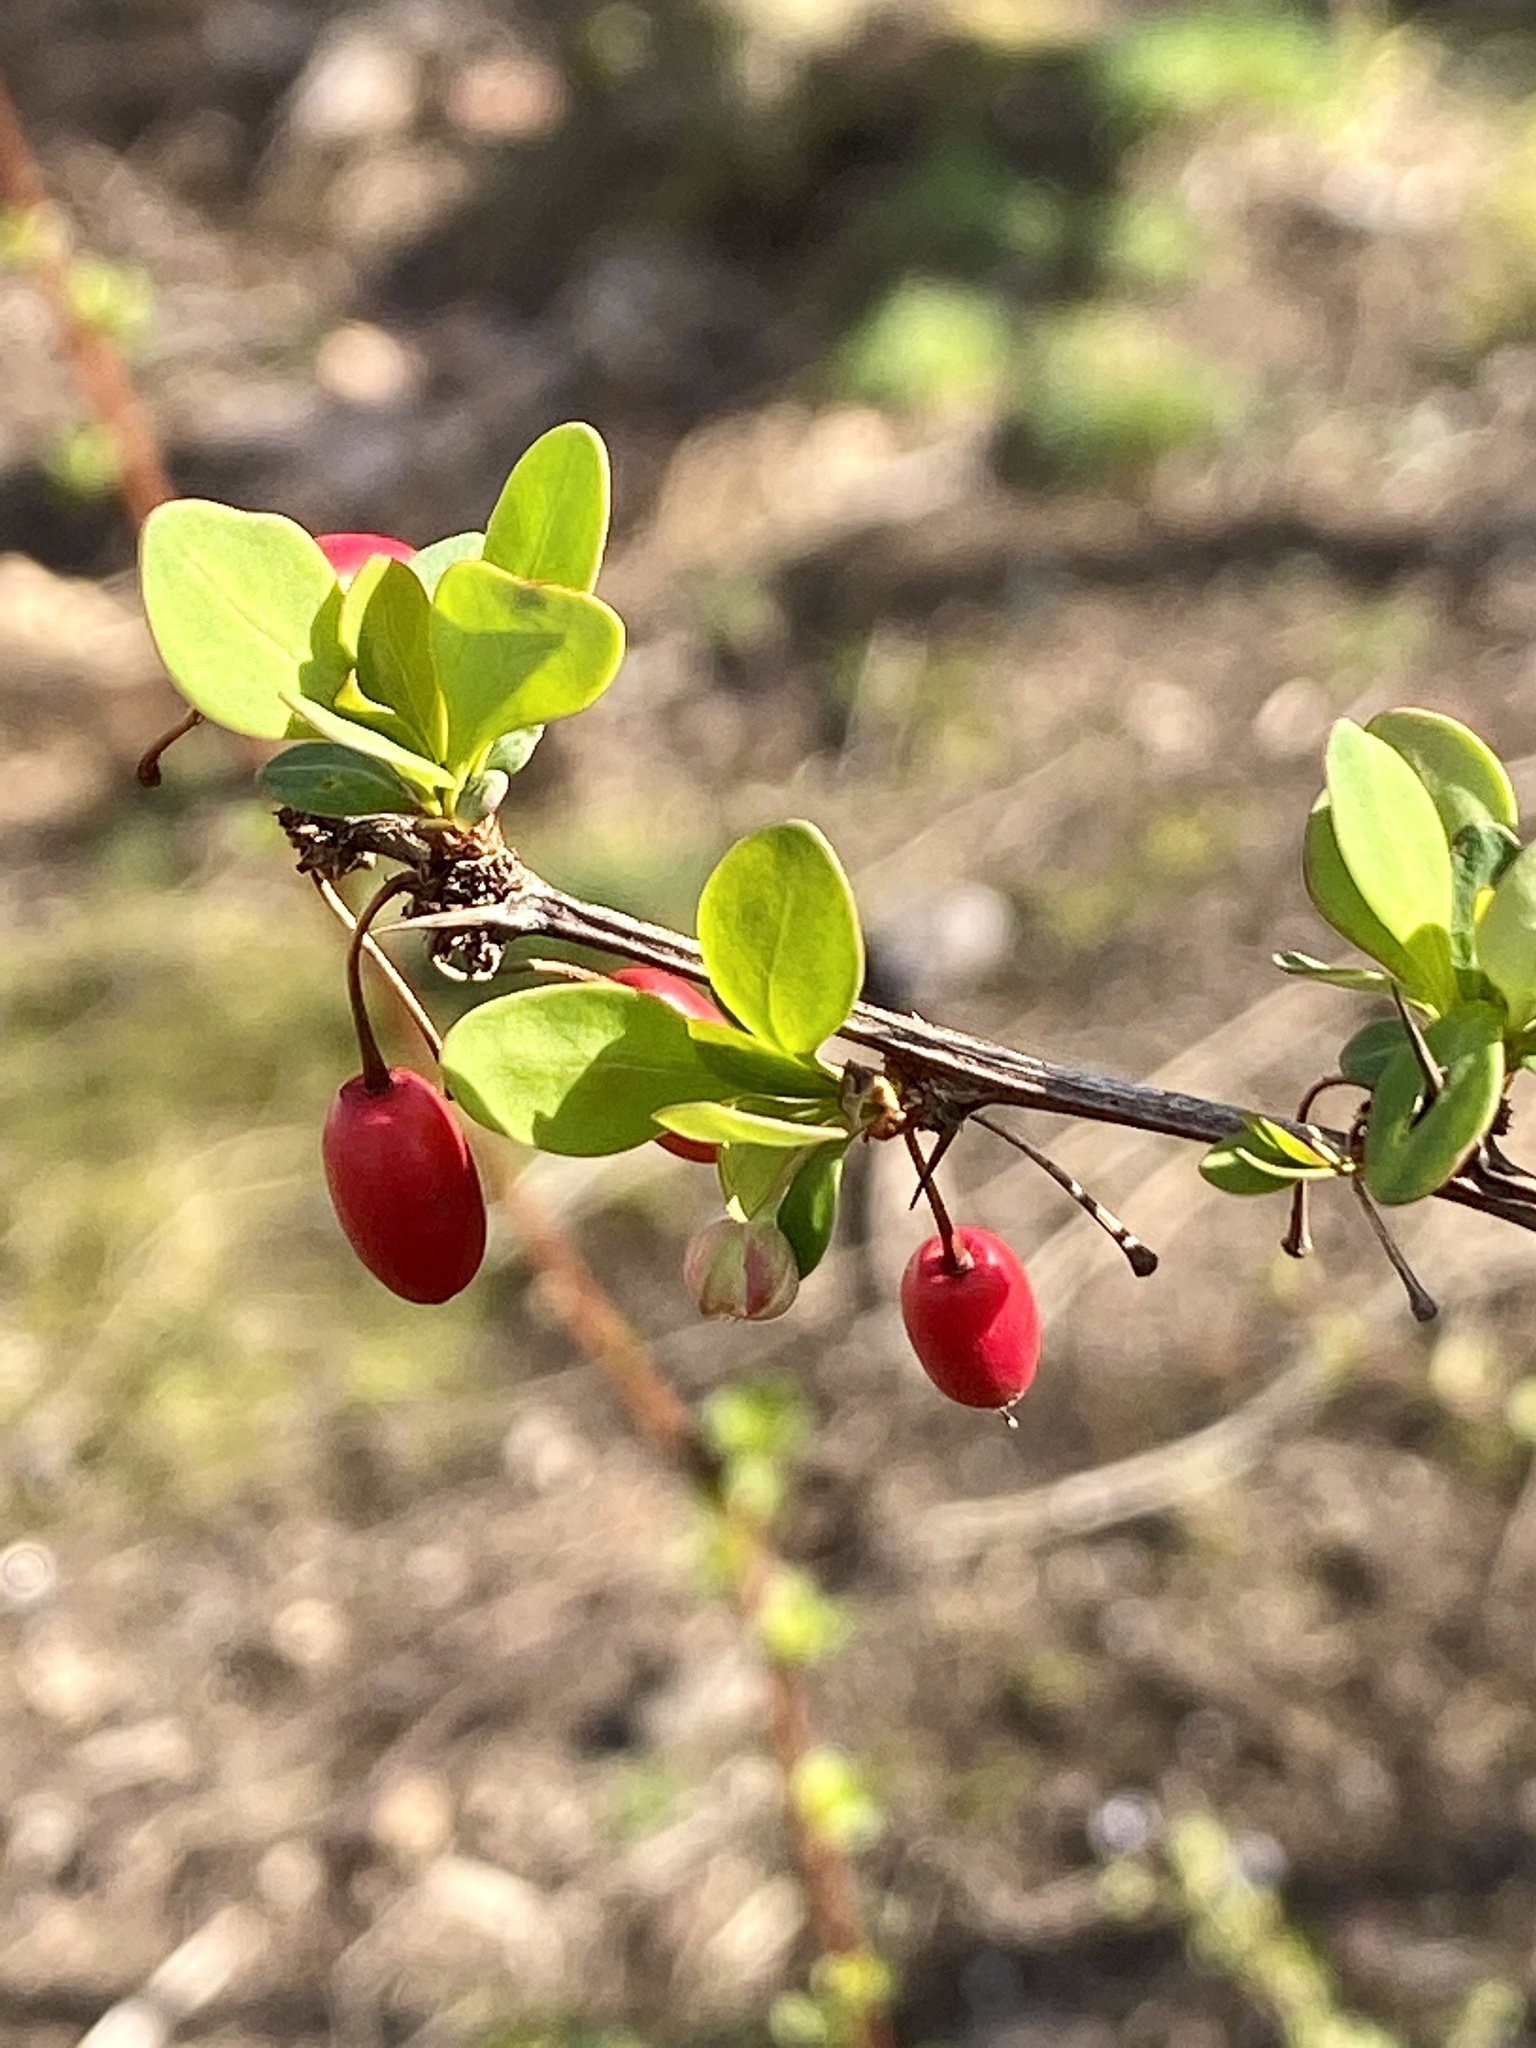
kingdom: Plantae
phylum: Tracheophyta
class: Magnoliopsida
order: Ranunculales
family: Berberidaceae
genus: Berberis
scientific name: Berberis thunbergii
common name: Japanese barberry
